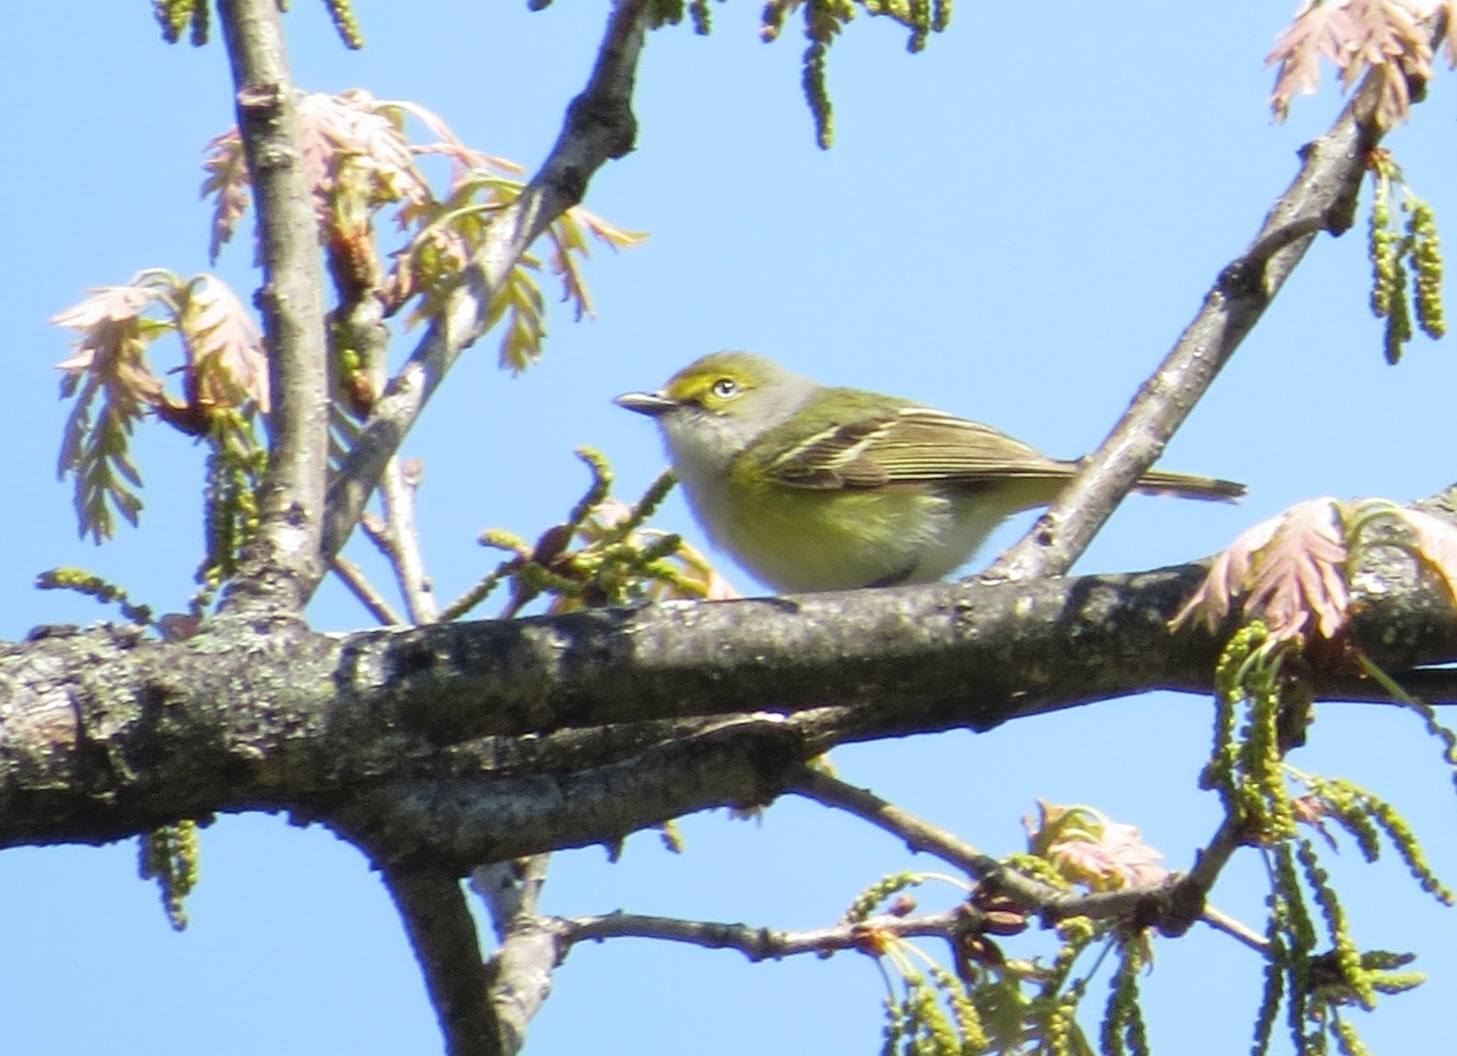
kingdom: Animalia
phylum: Chordata
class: Aves
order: Passeriformes
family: Vireonidae
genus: Vireo
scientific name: Vireo griseus
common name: White-eyed vireo
